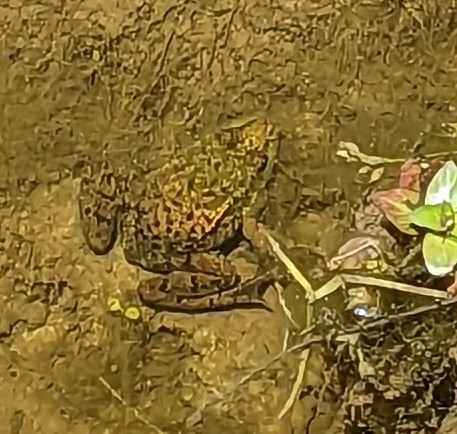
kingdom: Animalia
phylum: Chordata
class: Amphibia
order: Anura
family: Ranidae
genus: Lithobates
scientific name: Lithobates clamitans
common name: Green frog
